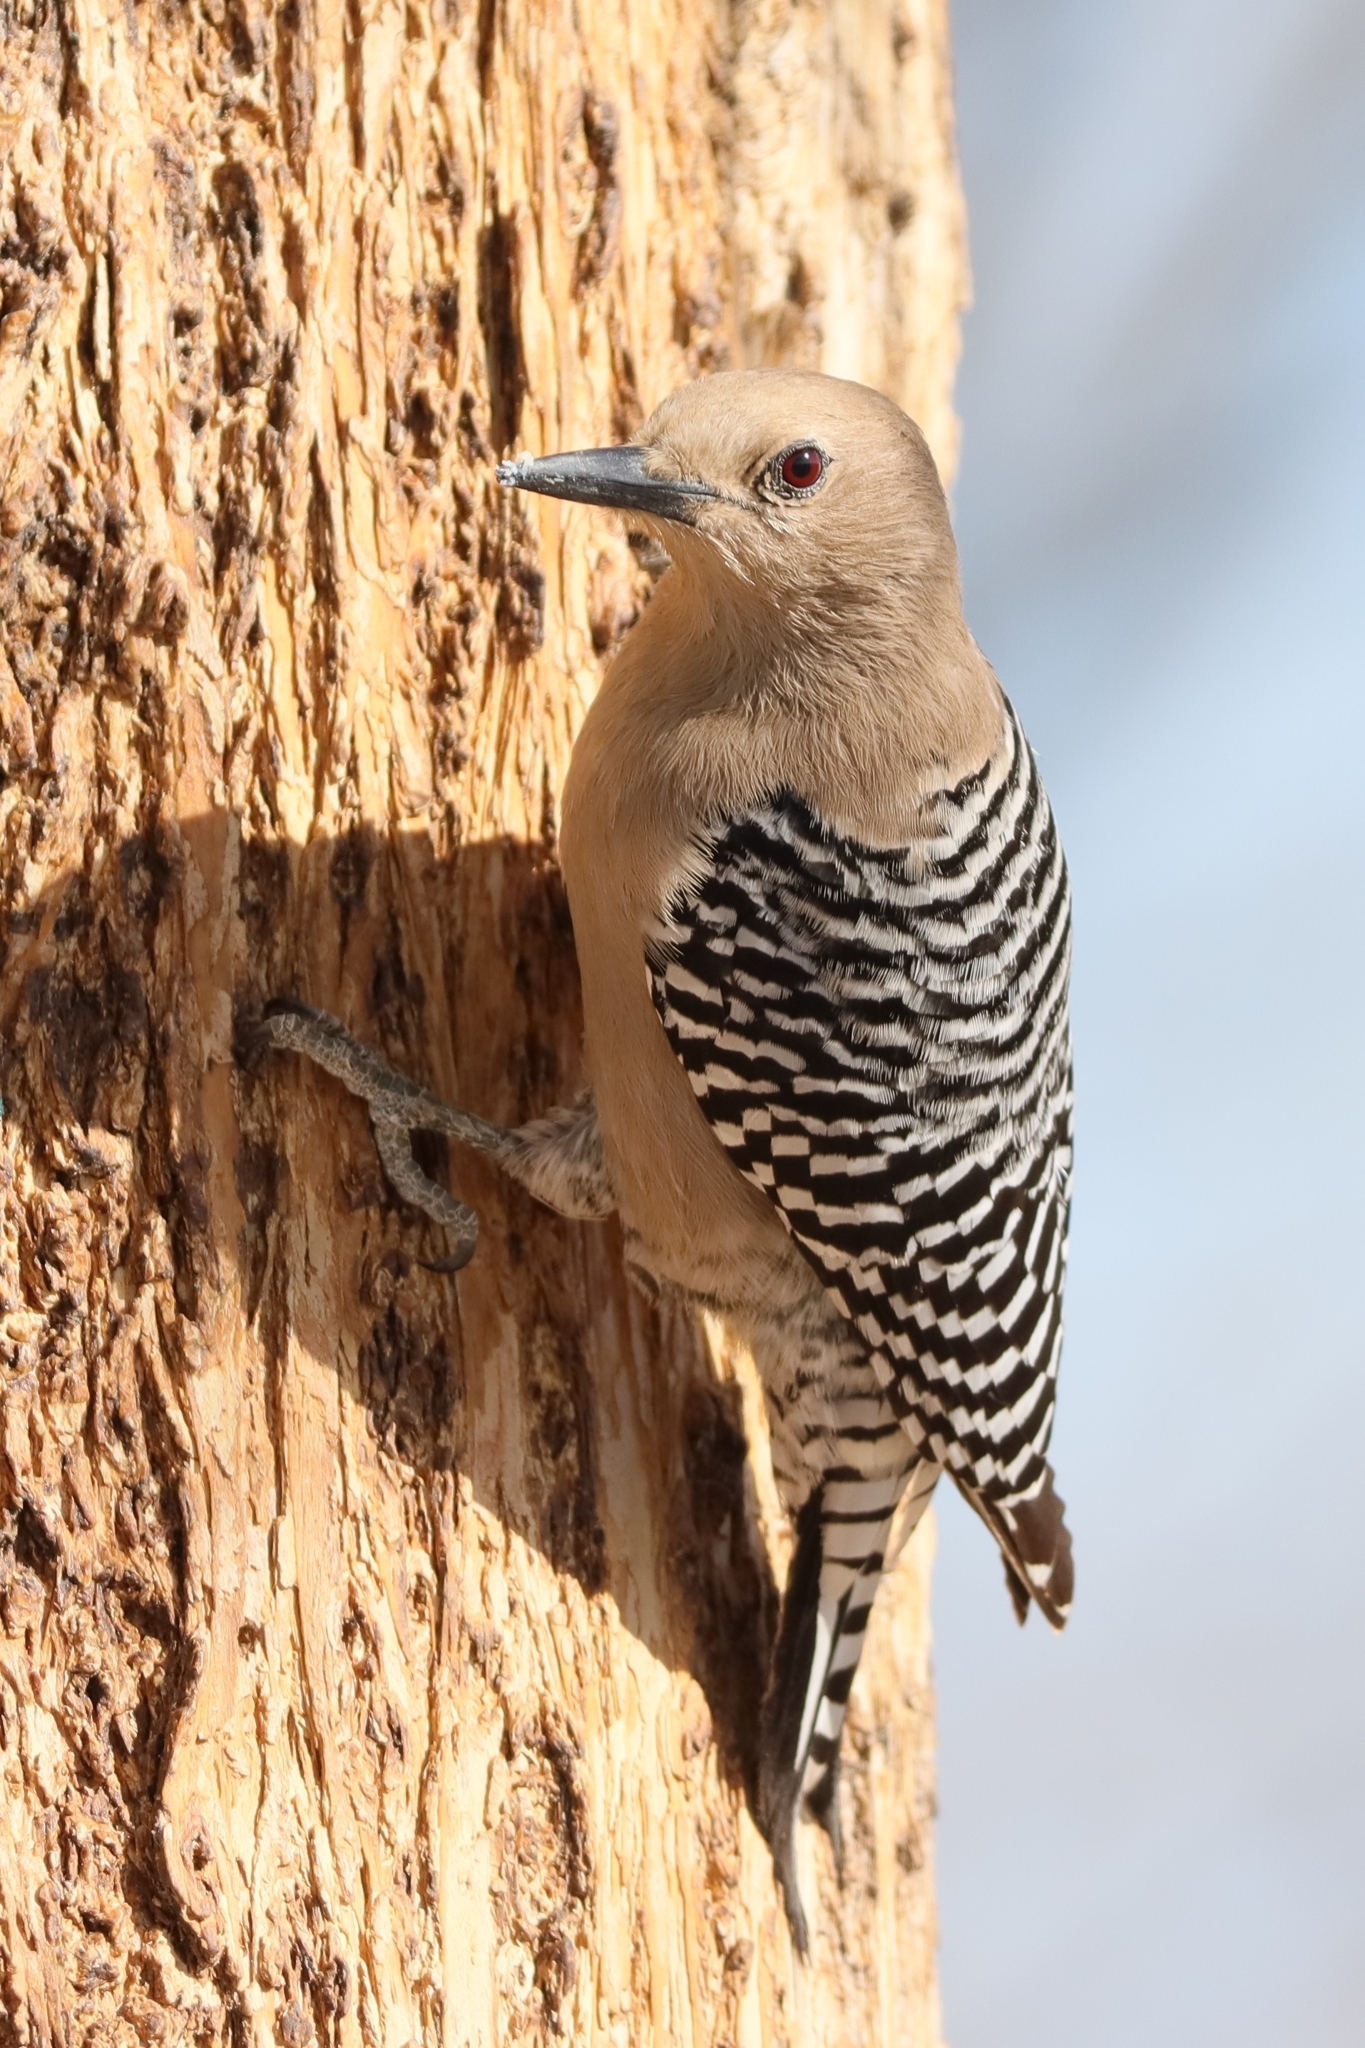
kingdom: Animalia
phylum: Chordata
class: Aves
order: Piciformes
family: Picidae
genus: Melanerpes
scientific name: Melanerpes uropygialis
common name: Gila woodpecker
